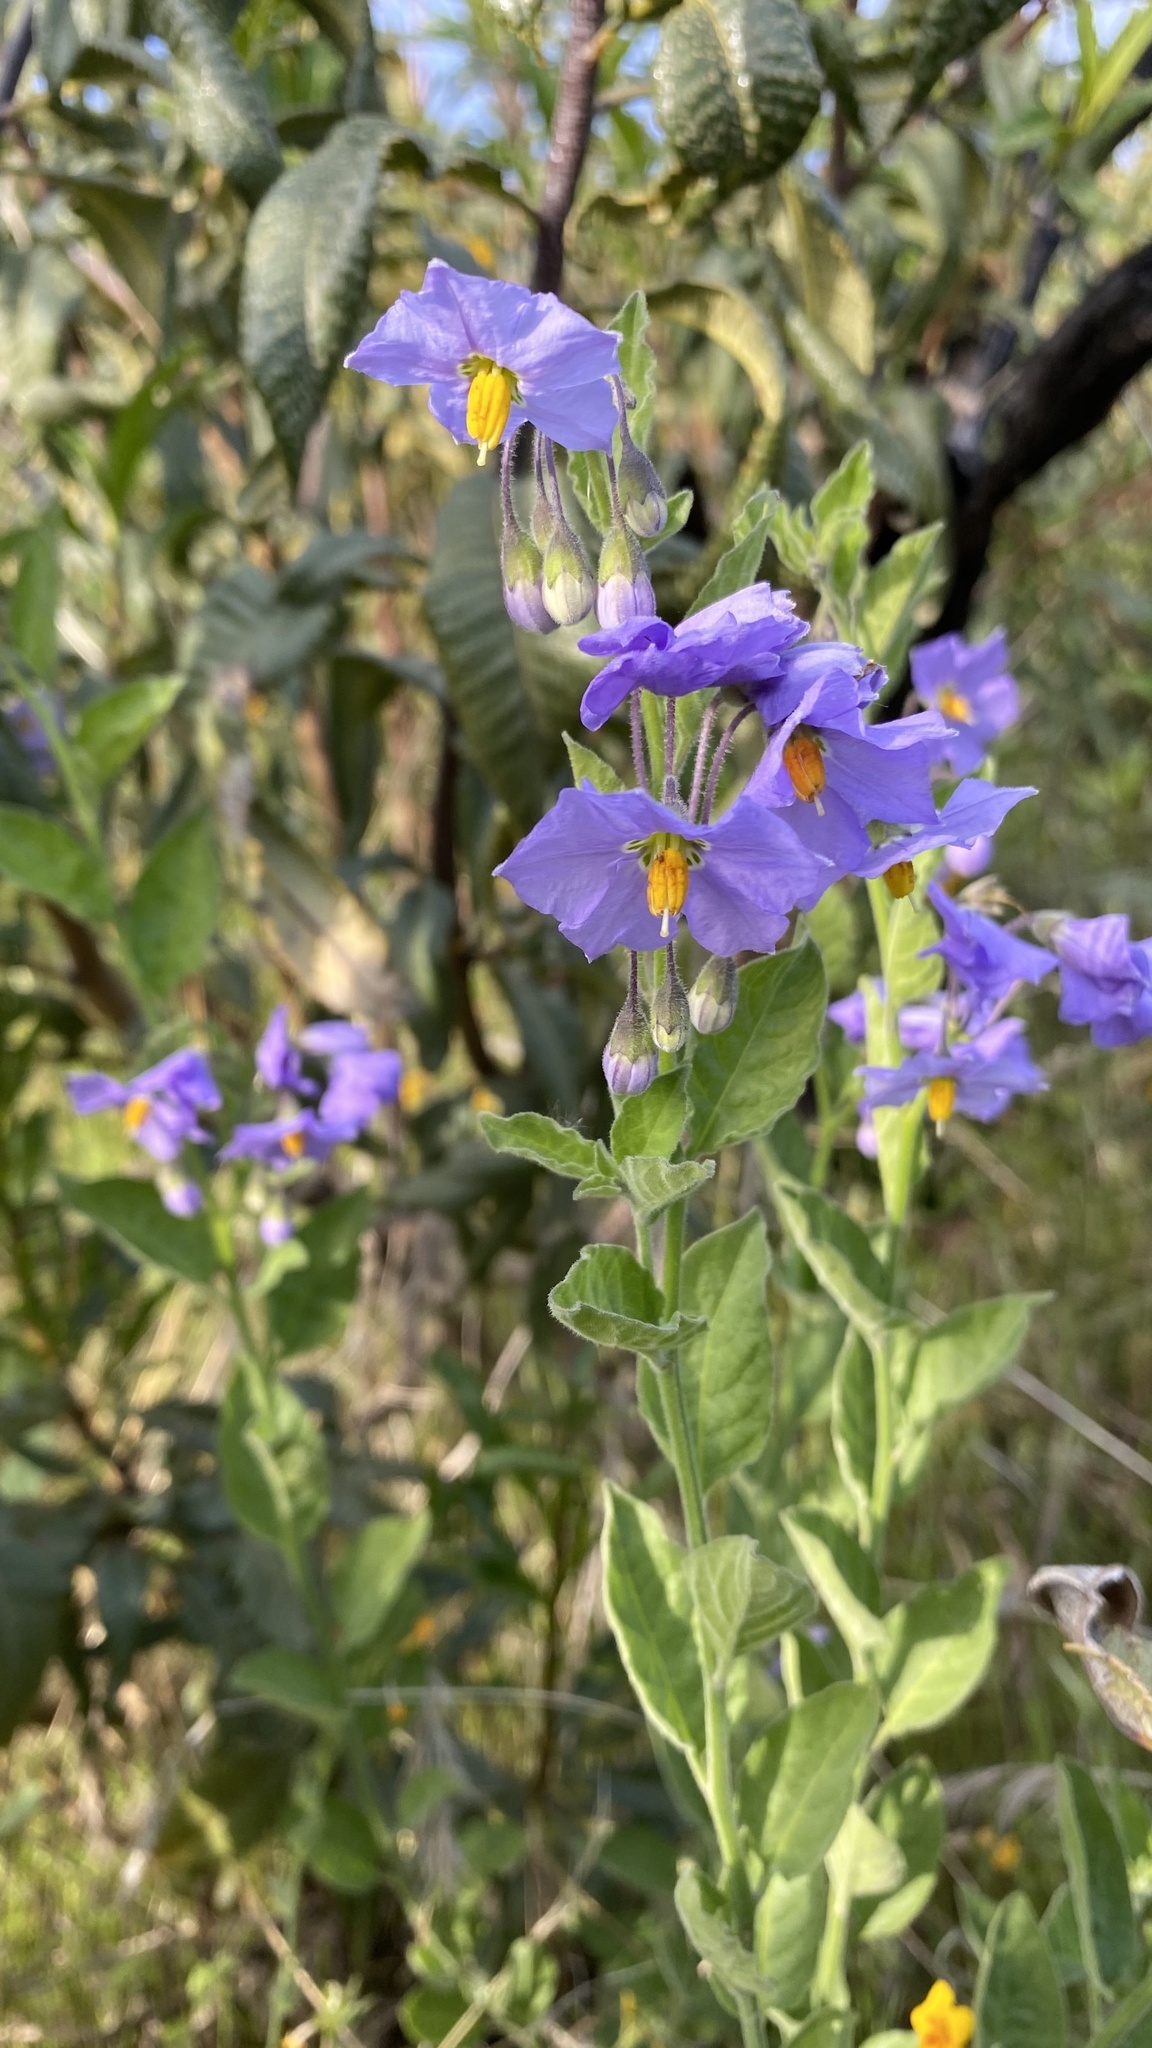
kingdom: Plantae
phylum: Tracheophyta
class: Magnoliopsida
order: Solanales
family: Solanaceae
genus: Solanum
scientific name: Solanum umbelliferum
